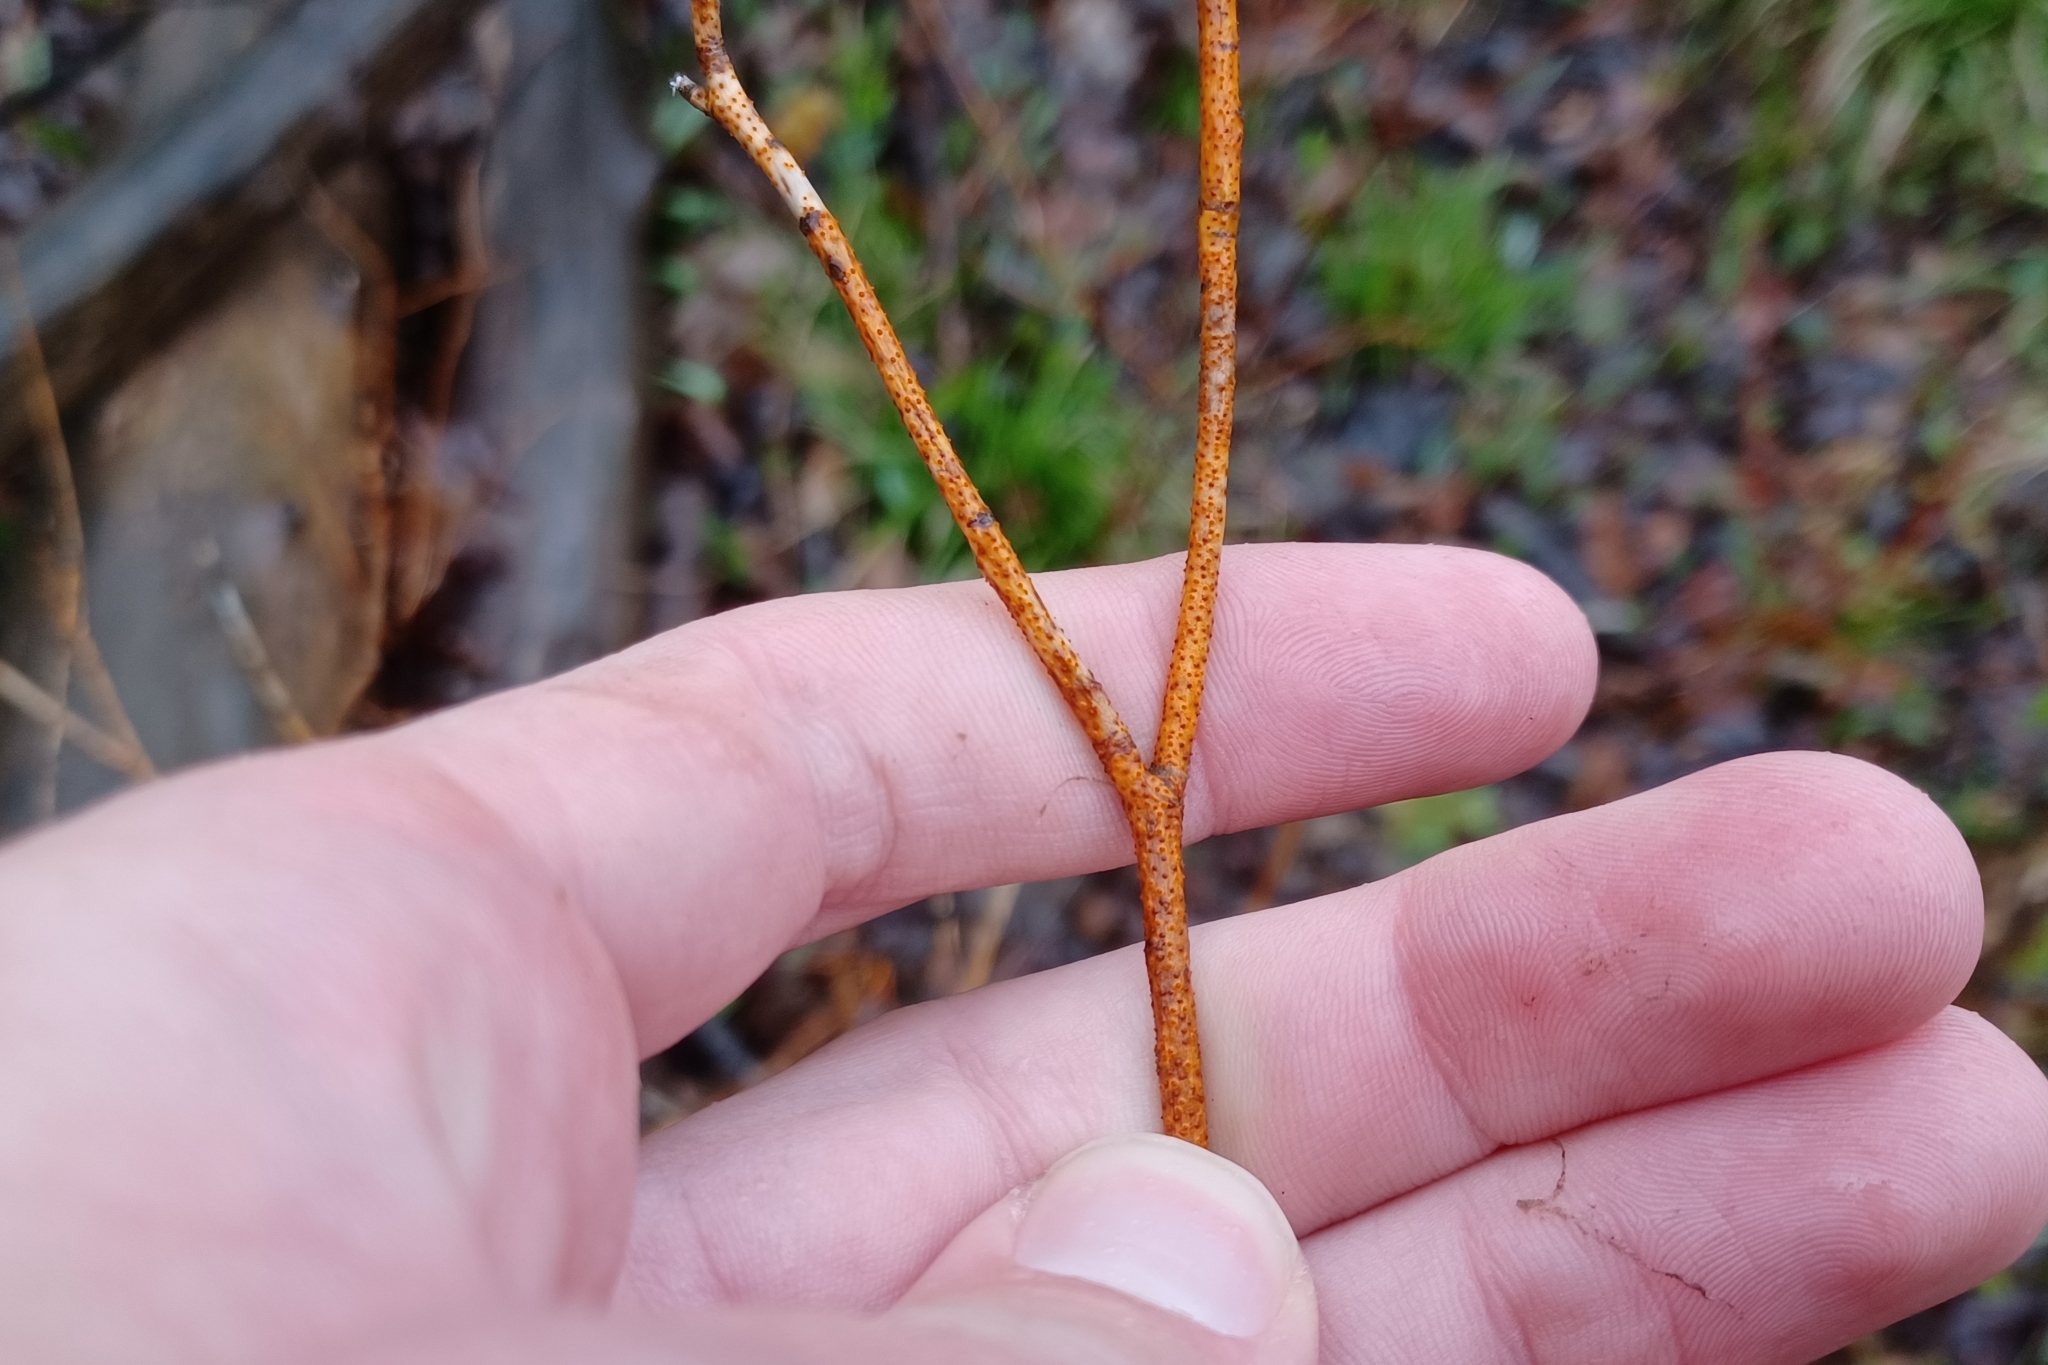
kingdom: Fungi
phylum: Ascomycota
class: Sordariomycetes
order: Diaporthales
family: Cryphonectriaceae
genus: Aurantioporthe
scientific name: Aurantioporthe corni
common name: Dogwood golden canker
